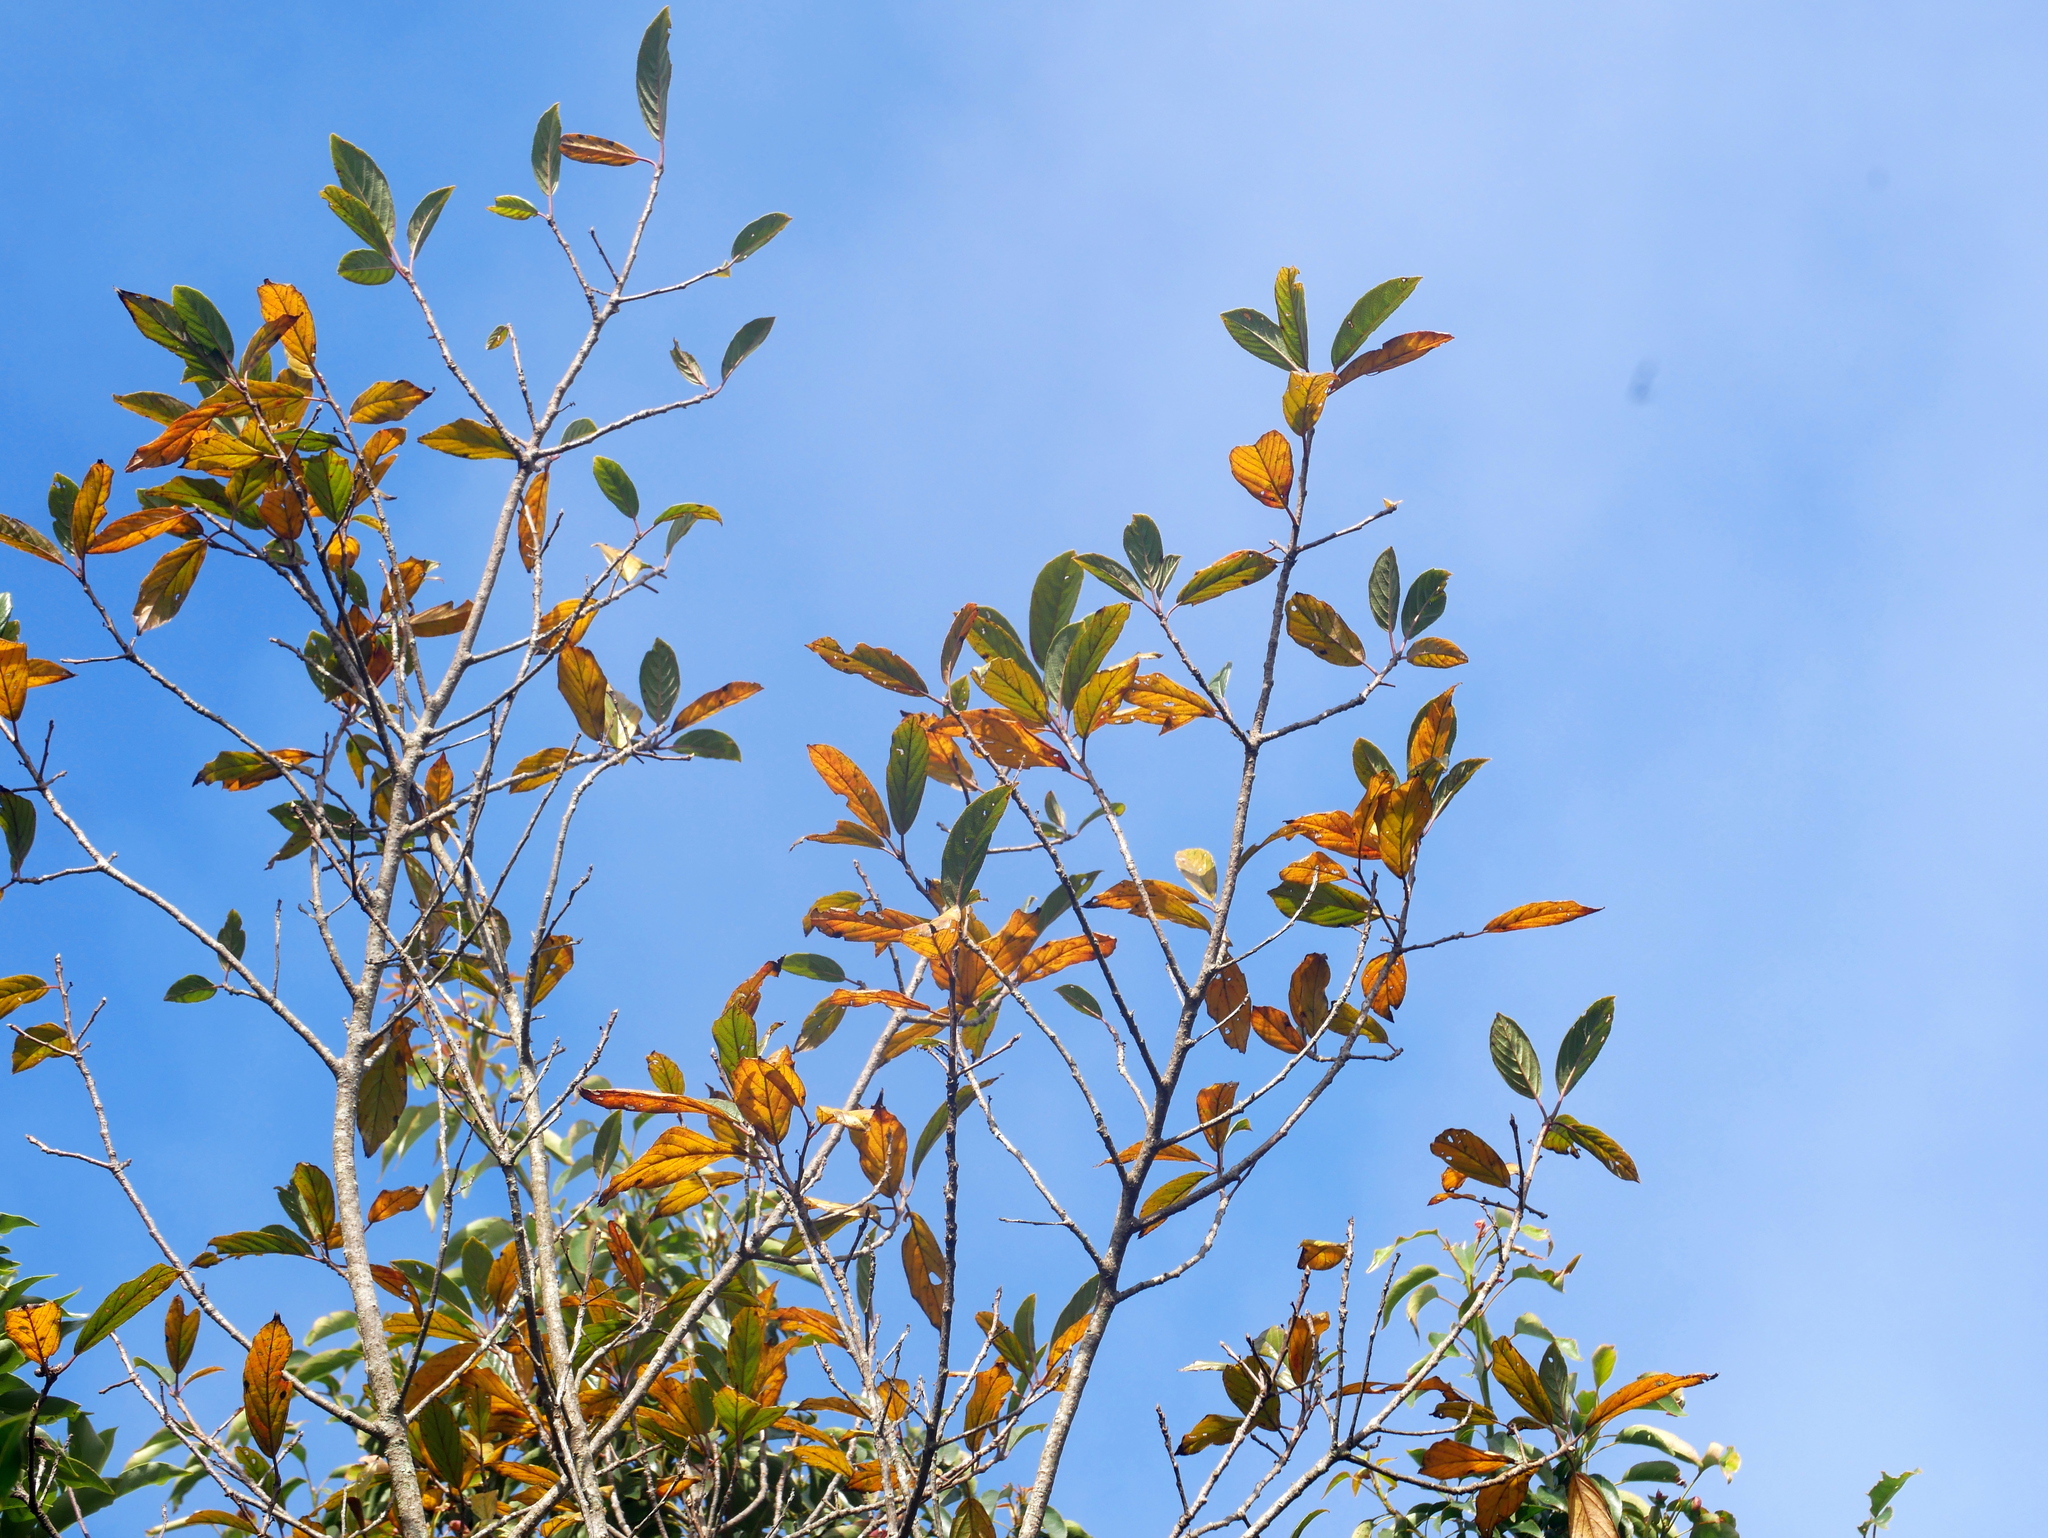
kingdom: Plantae
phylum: Tracheophyta
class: Magnoliopsida
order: Rosales
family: Rhamnaceae
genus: Frangula
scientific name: Frangula crenata
